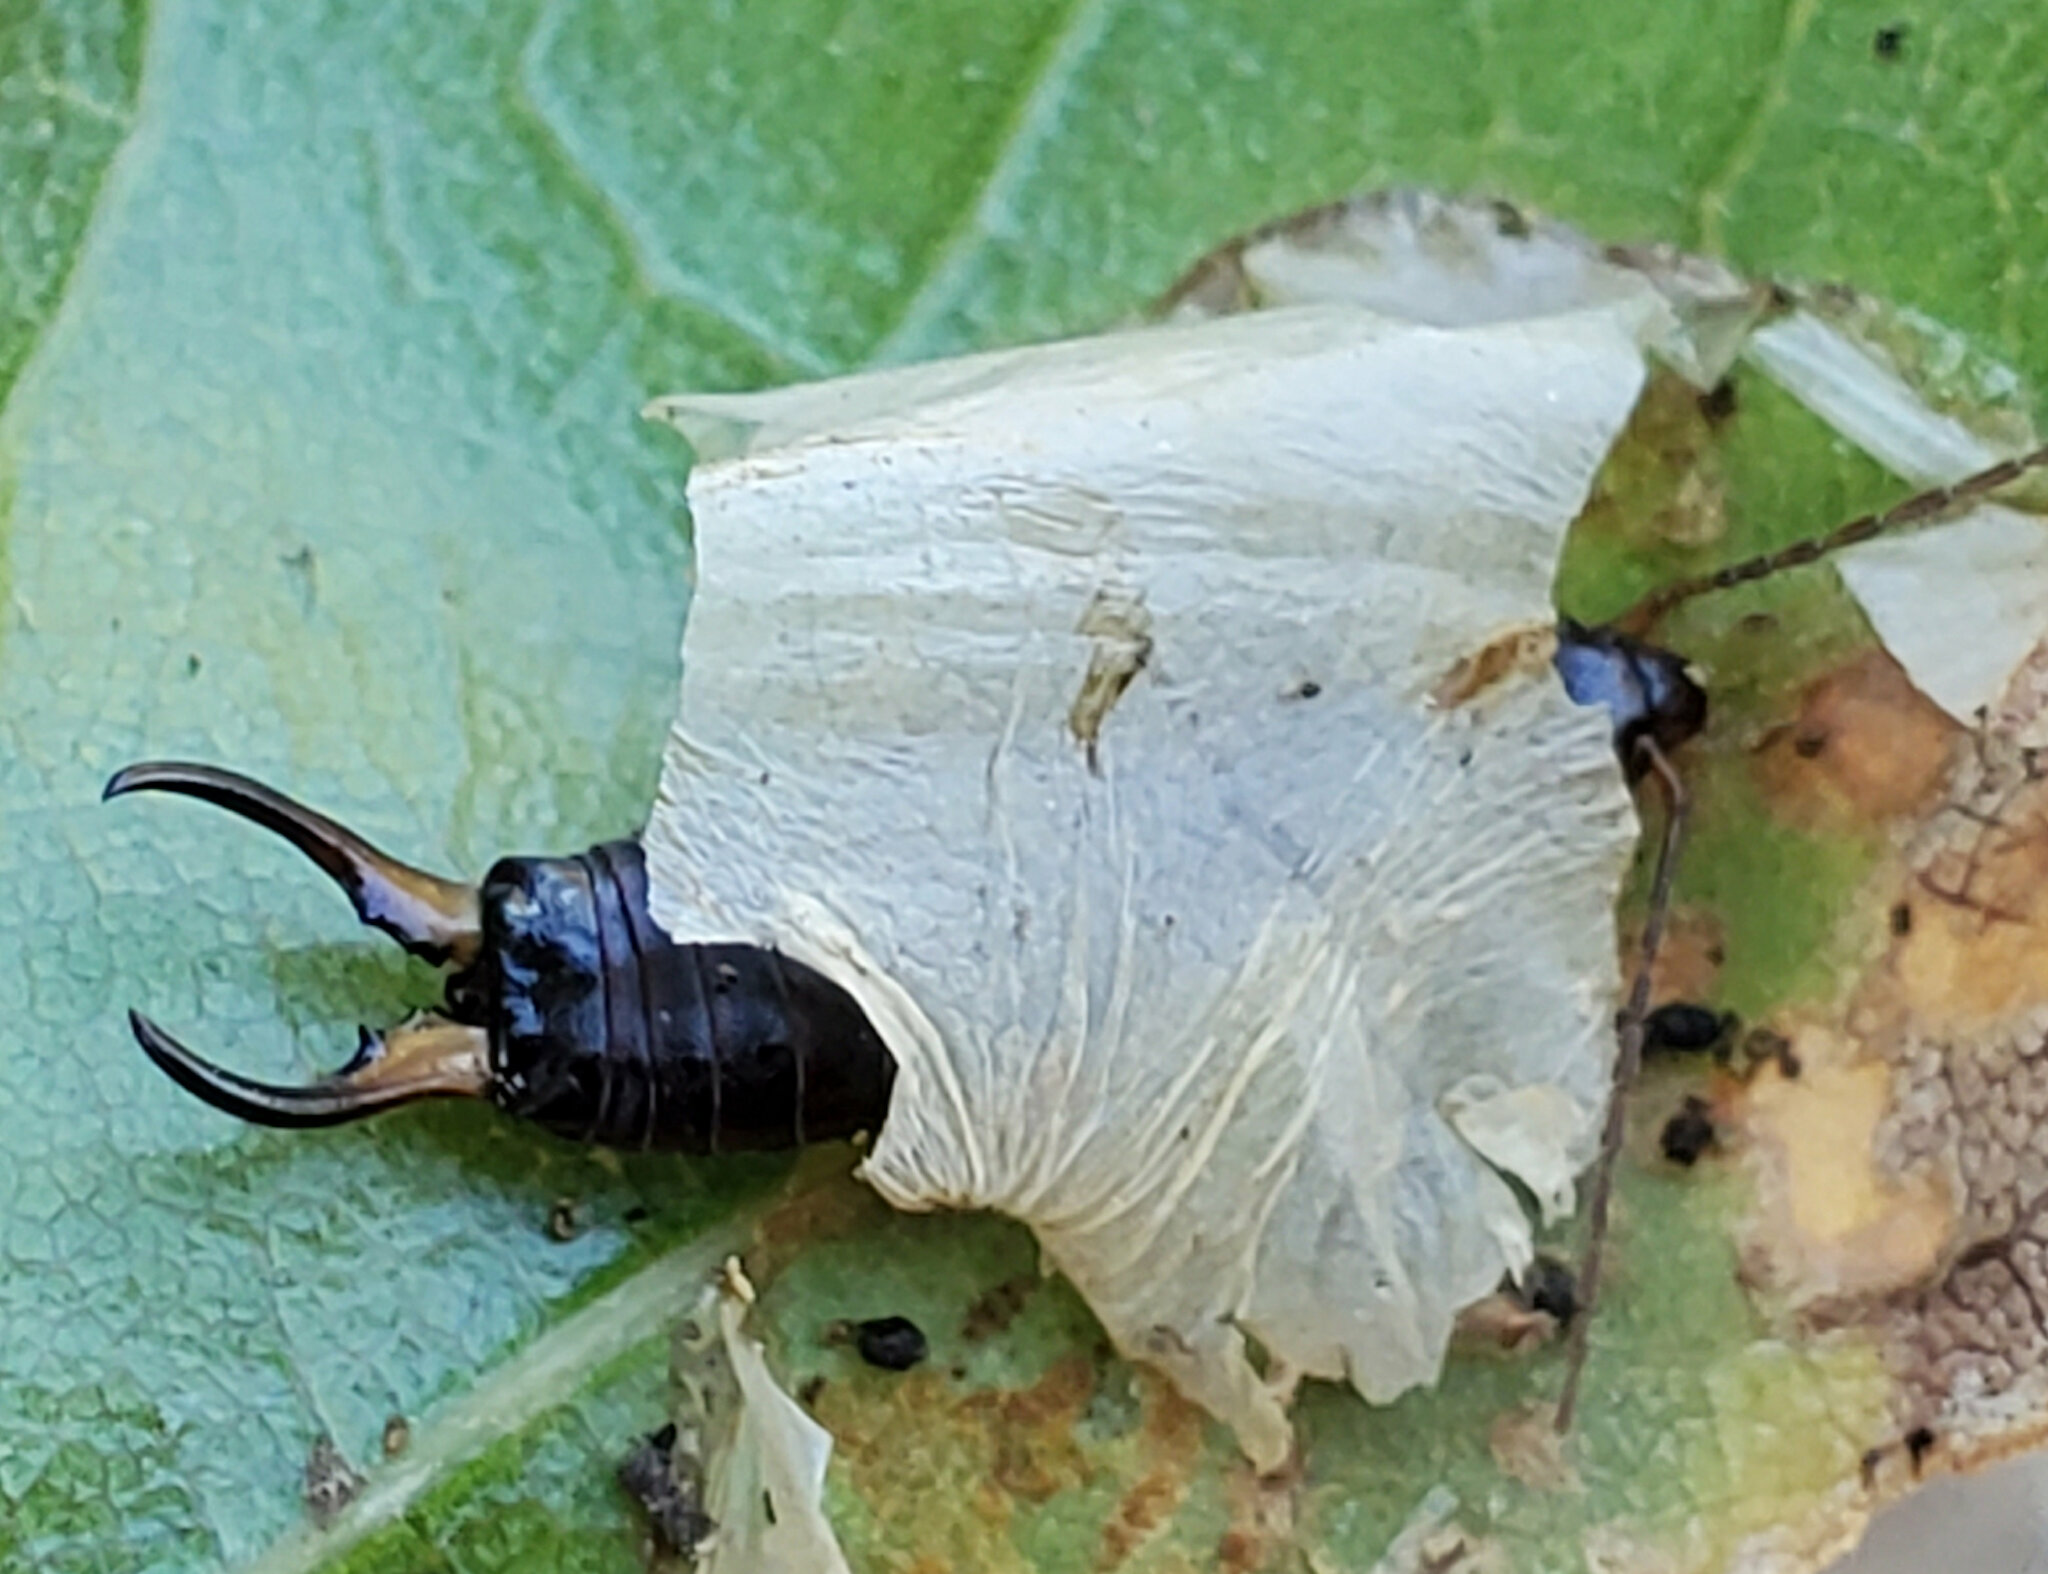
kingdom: Animalia
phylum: Arthropoda
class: Insecta
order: Dermaptera
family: Forficulidae
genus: Forficula
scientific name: Forficula
